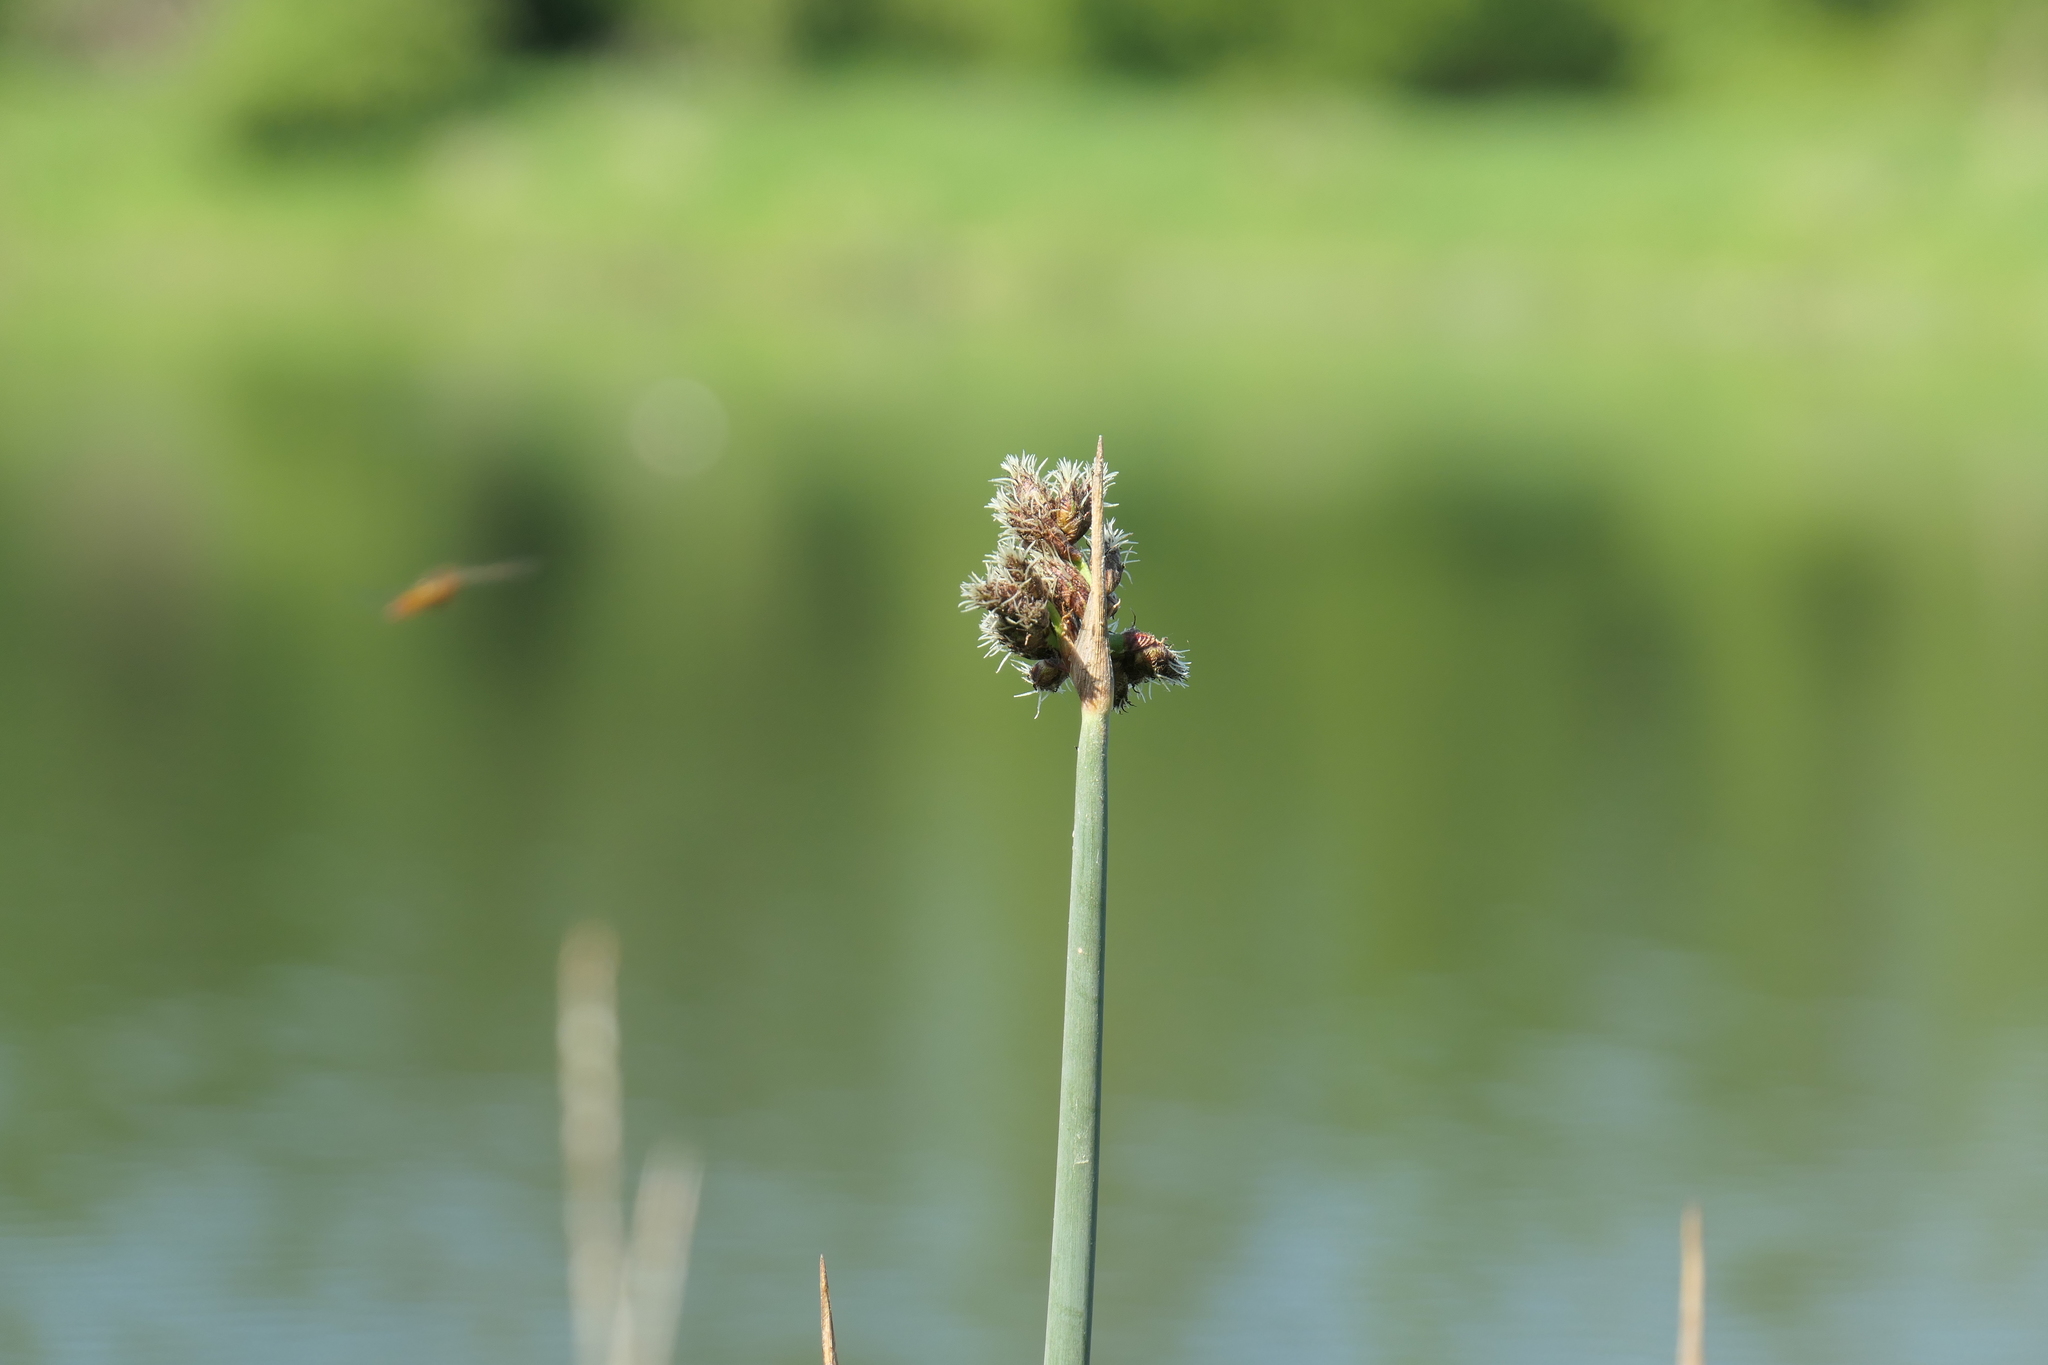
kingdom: Plantae
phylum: Tracheophyta
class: Liliopsida
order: Poales
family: Cyperaceae
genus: Schoenoplectus
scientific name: Schoenoplectus acutus
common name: Hardstem bulrush
